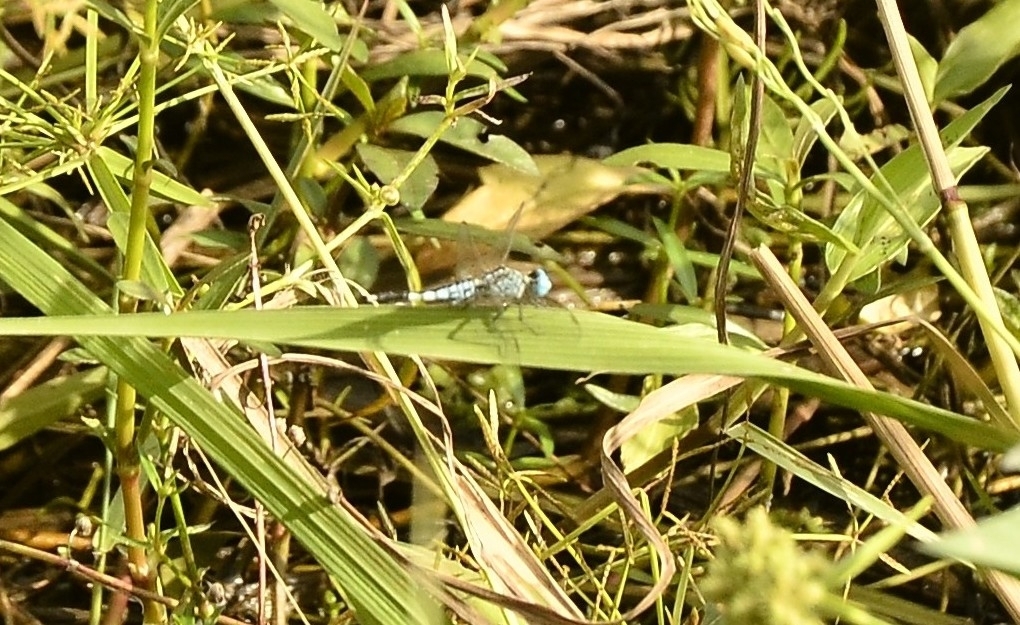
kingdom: Animalia
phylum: Arthropoda
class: Insecta
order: Odonata
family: Libellulidae
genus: Acisoma
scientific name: Acisoma panorpoides
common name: Asian pintail
